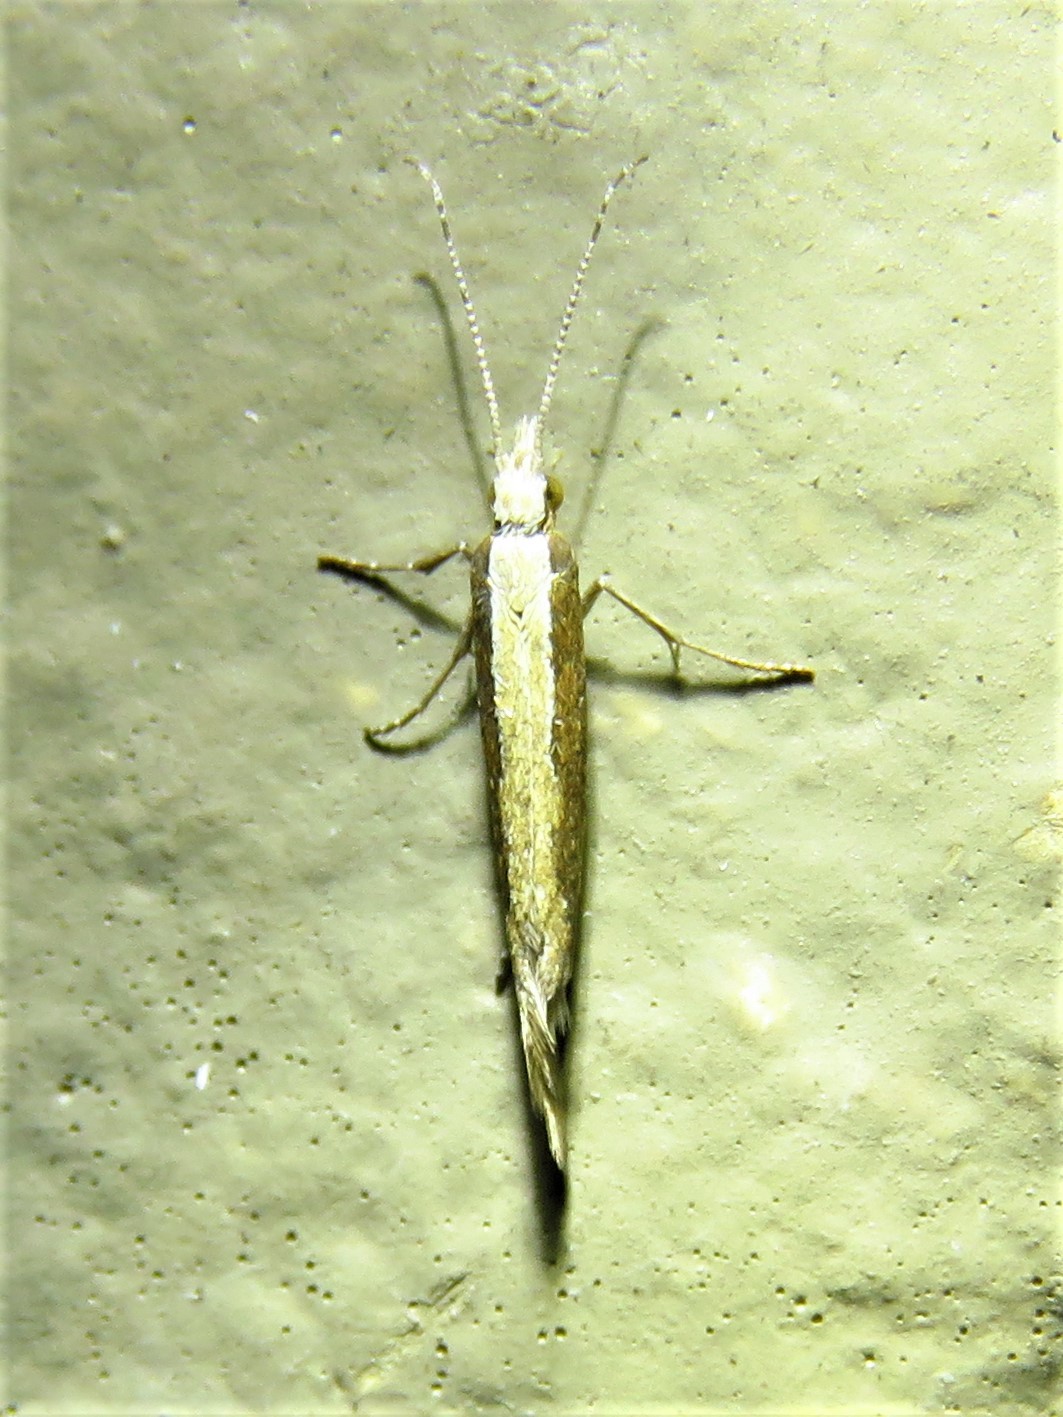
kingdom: Animalia
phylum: Arthropoda
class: Insecta
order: Lepidoptera
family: Plutellidae
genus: Plutella
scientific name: Plutella xylostella
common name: Diamond-back moth
